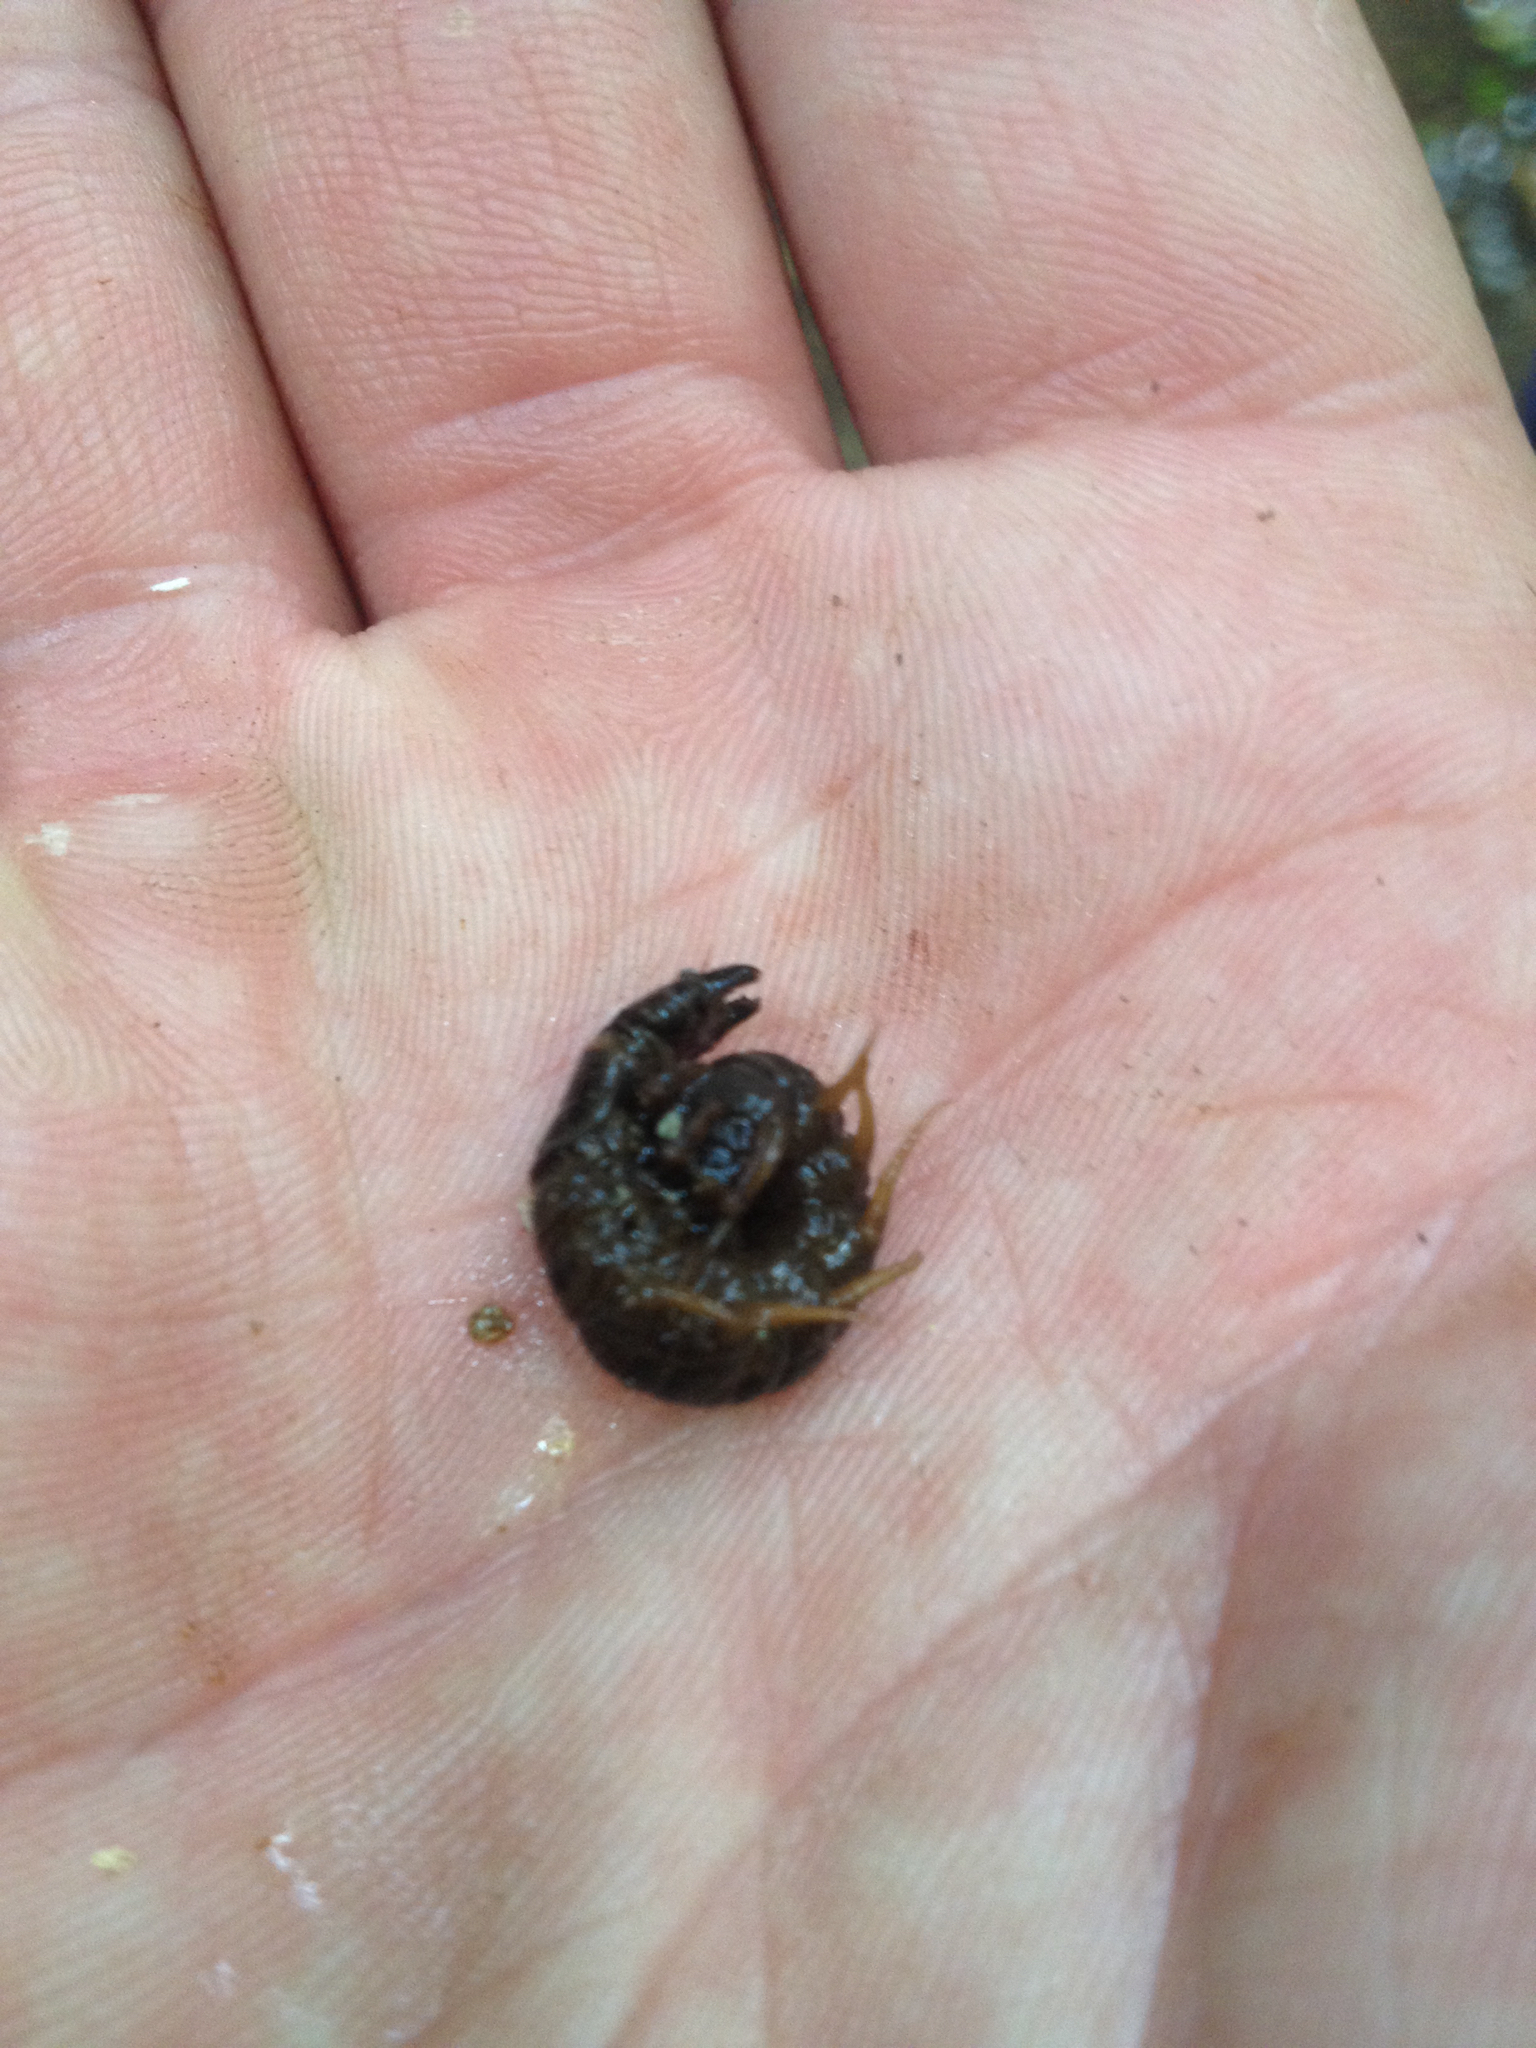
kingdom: Animalia
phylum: Arthropoda
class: Insecta
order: Megaloptera
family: Corydalidae
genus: Archichauliodes
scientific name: Archichauliodes diversus
